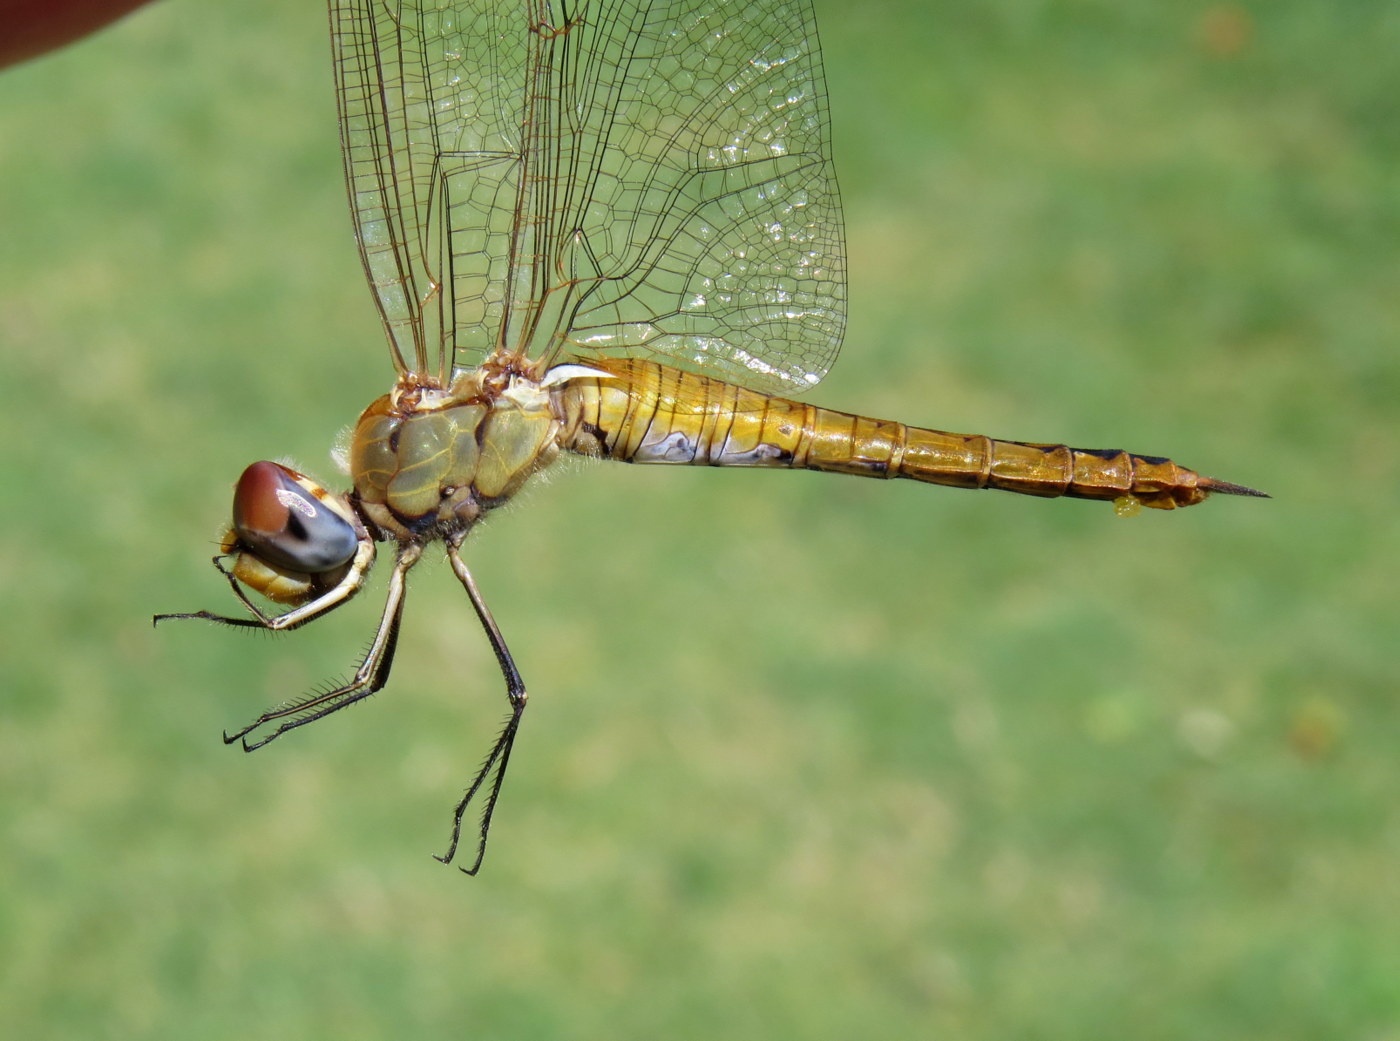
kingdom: Animalia
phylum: Arthropoda
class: Insecta
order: Odonata
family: Libellulidae
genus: Pantala
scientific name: Pantala flavescens
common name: Wandering glider
